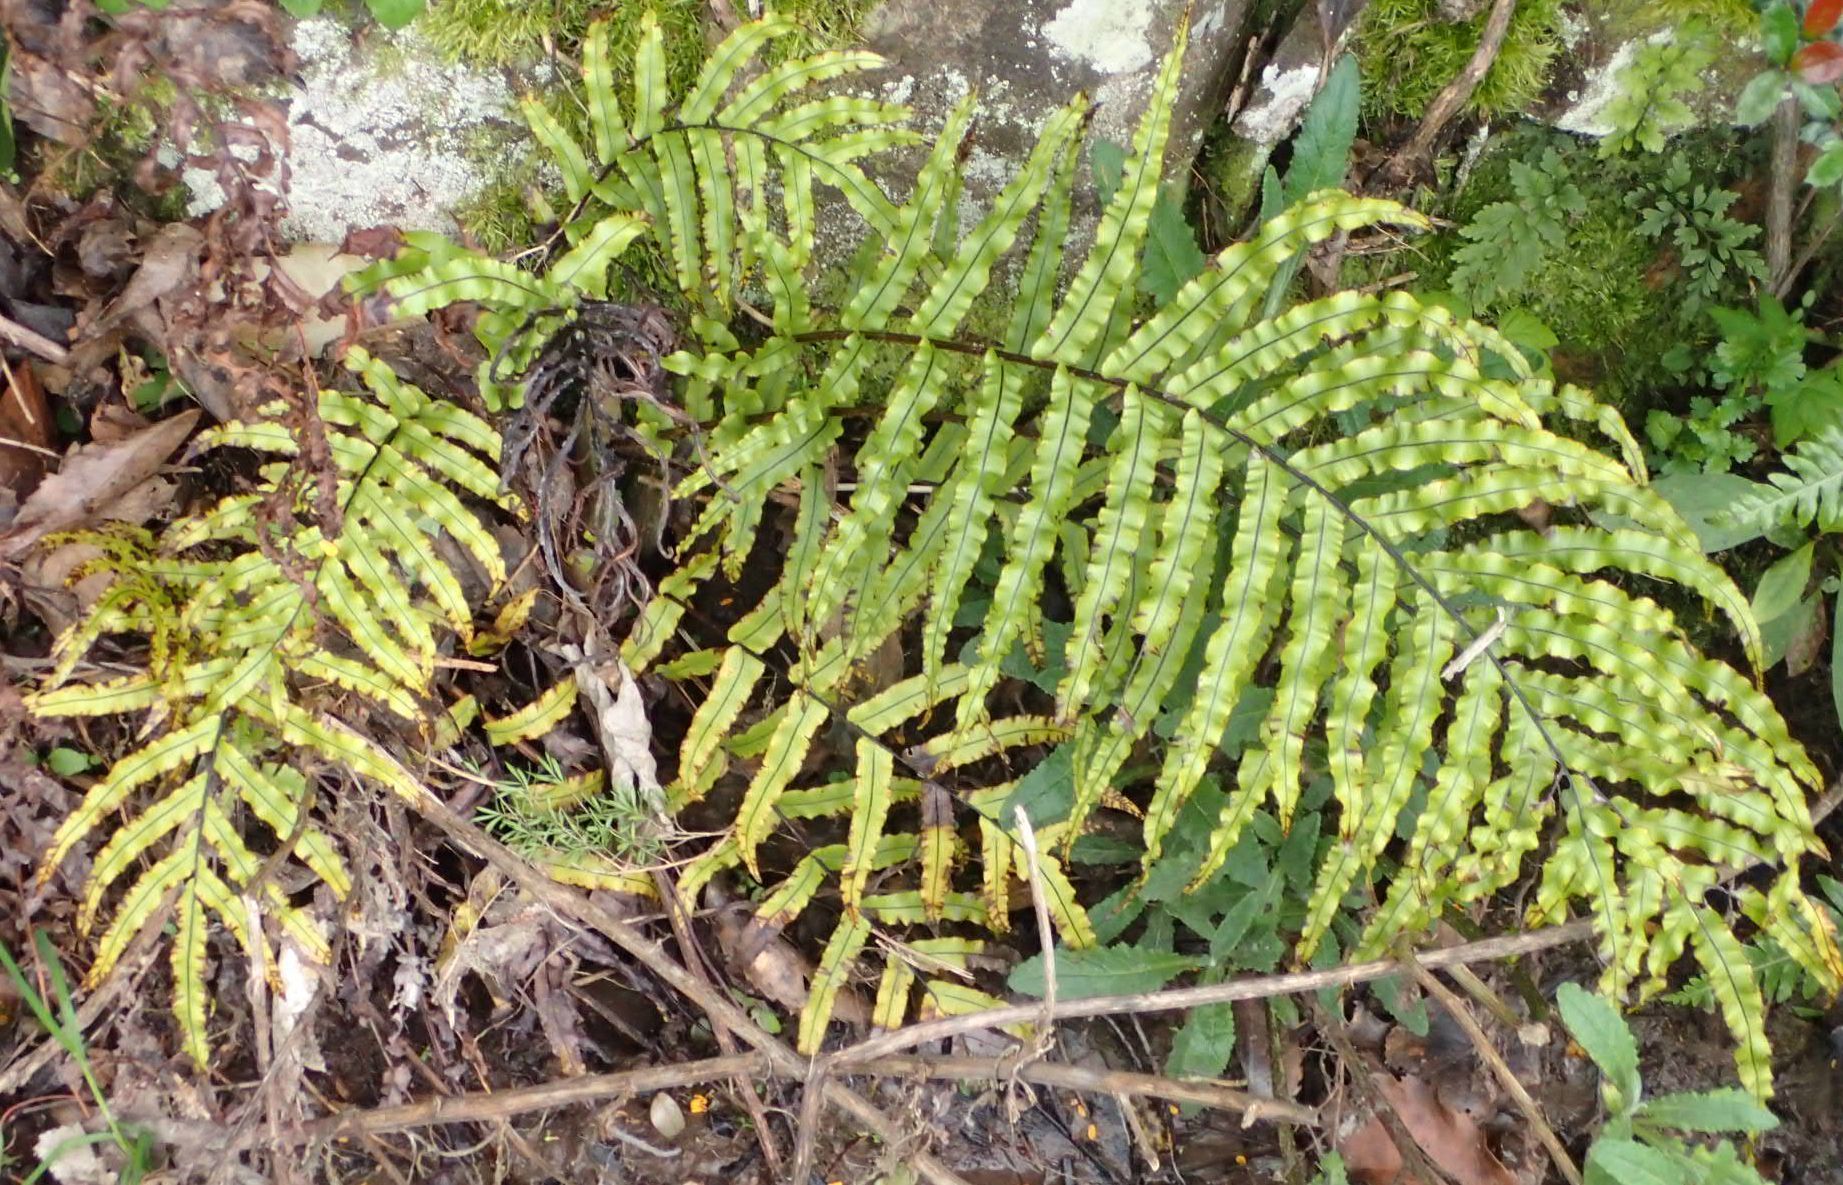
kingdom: Plantae
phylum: Tracheophyta
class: Polypodiopsida
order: Polypodiales
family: Blechnaceae
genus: Parablechnum
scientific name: Parablechnum montanum
